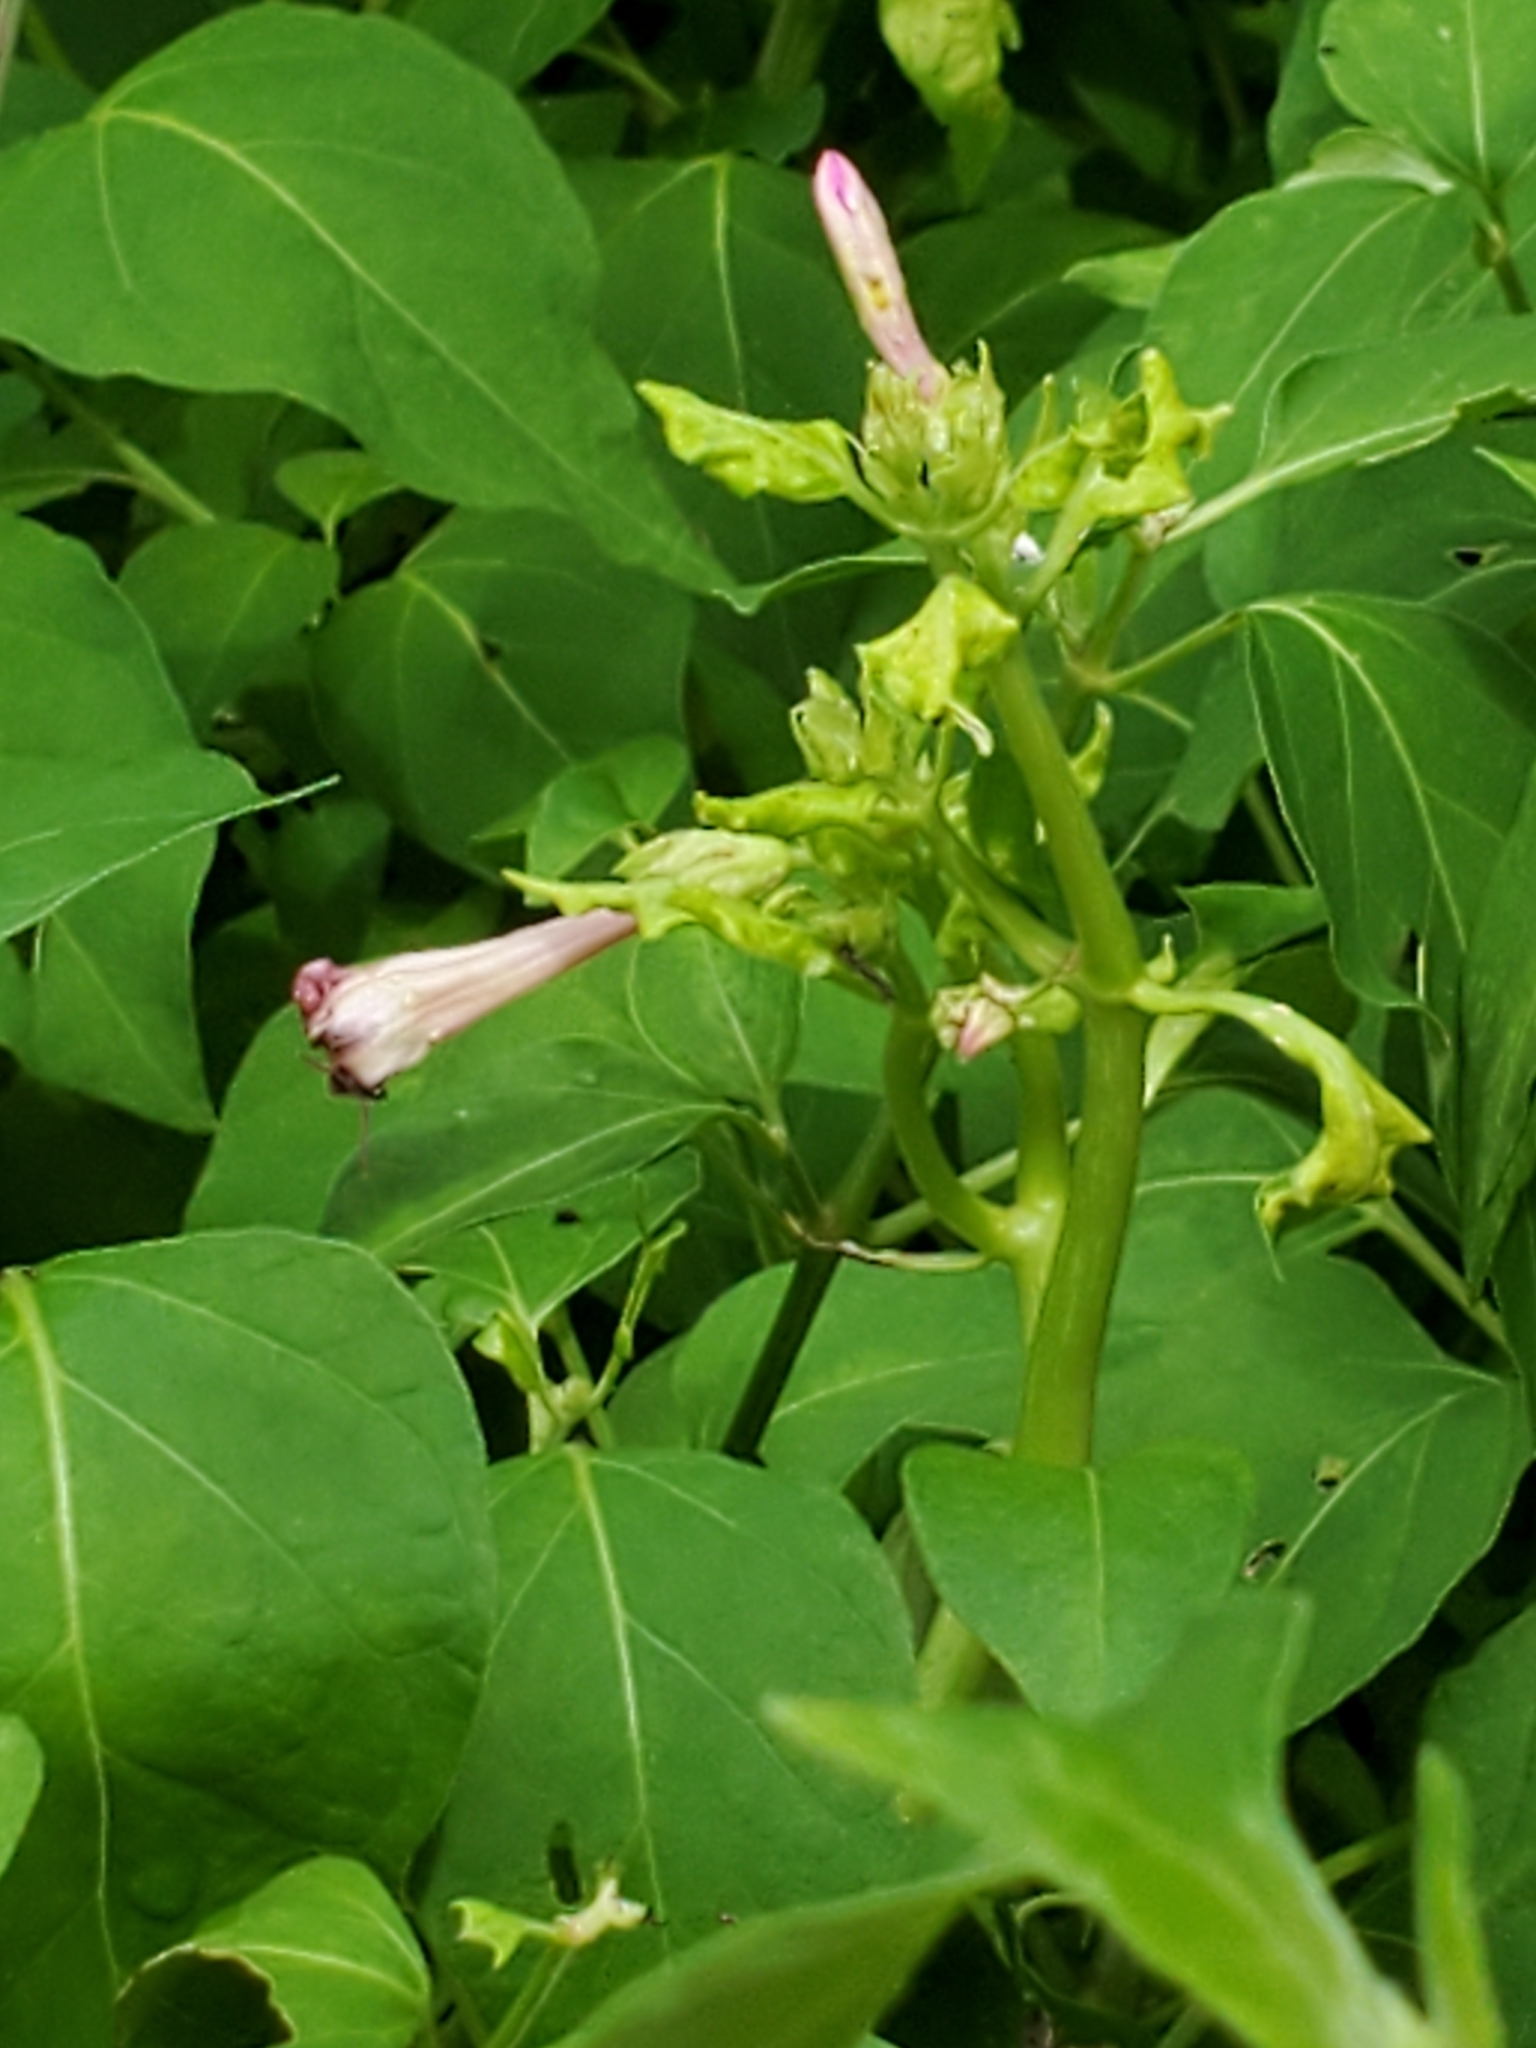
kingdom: Plantae
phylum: Tracheophyta
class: Magnoliopsida
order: Caryophyllales
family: Nyctaginaceae
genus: Mirabilis
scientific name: Mirabilis jalapa
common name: Marvel-of-peru
